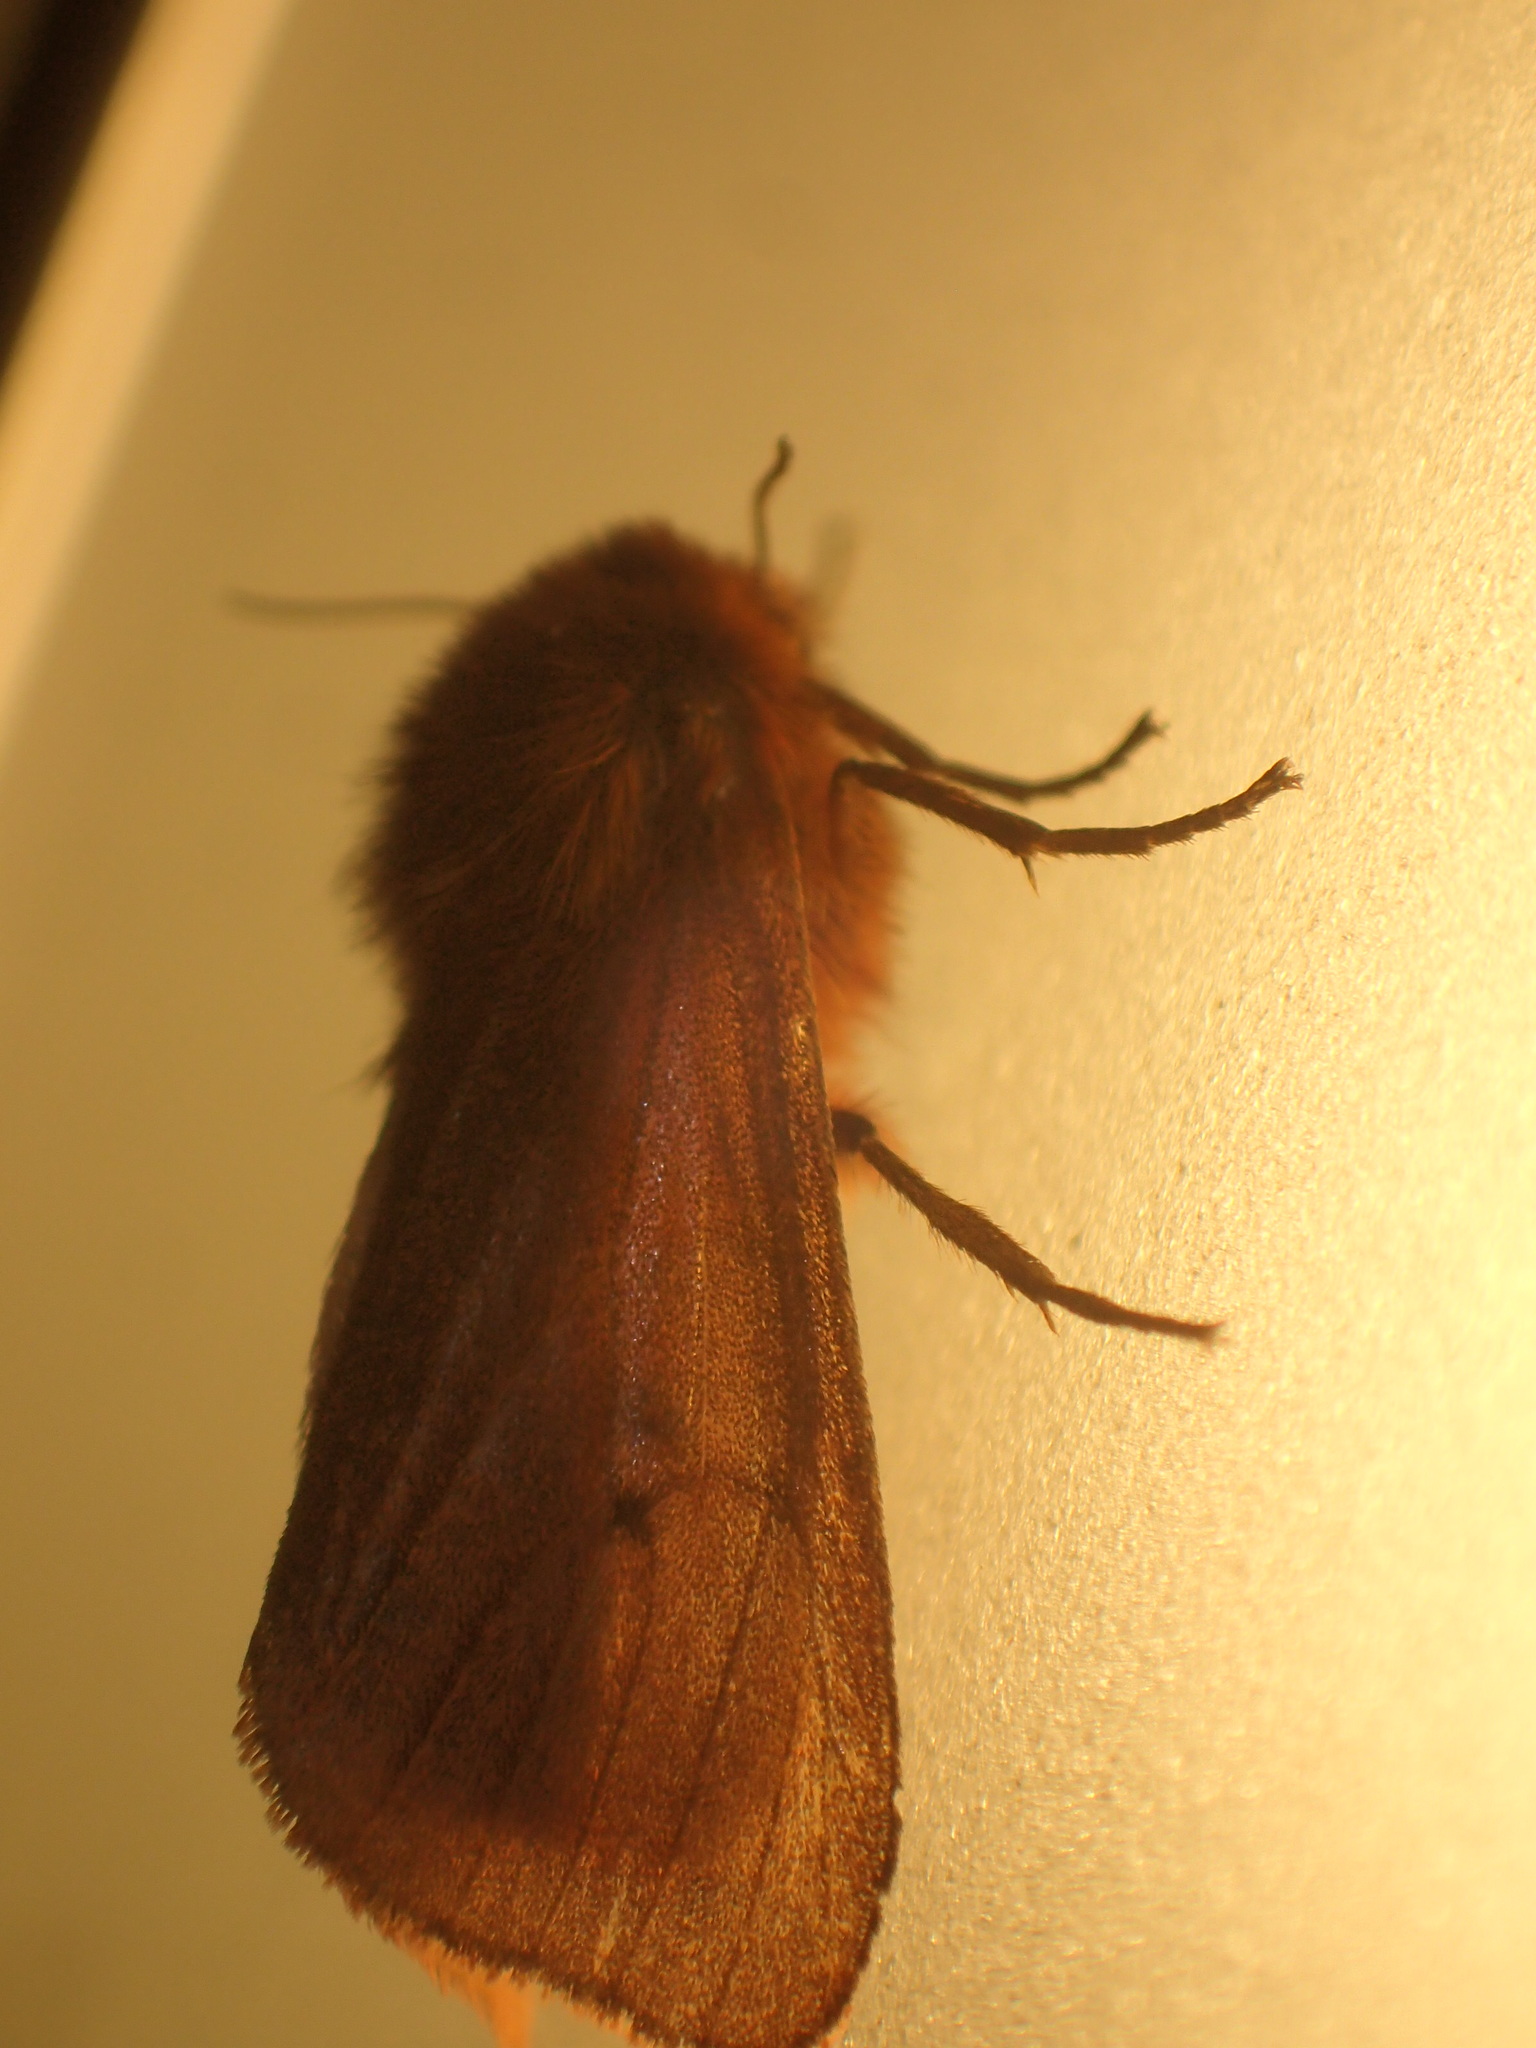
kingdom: Animalia
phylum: Arthropoda
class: Insecta
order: Lepidoptera
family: Erebidae
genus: Phragmatobia
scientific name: Phragmatobia fuliginosa
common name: Ruby tiger
